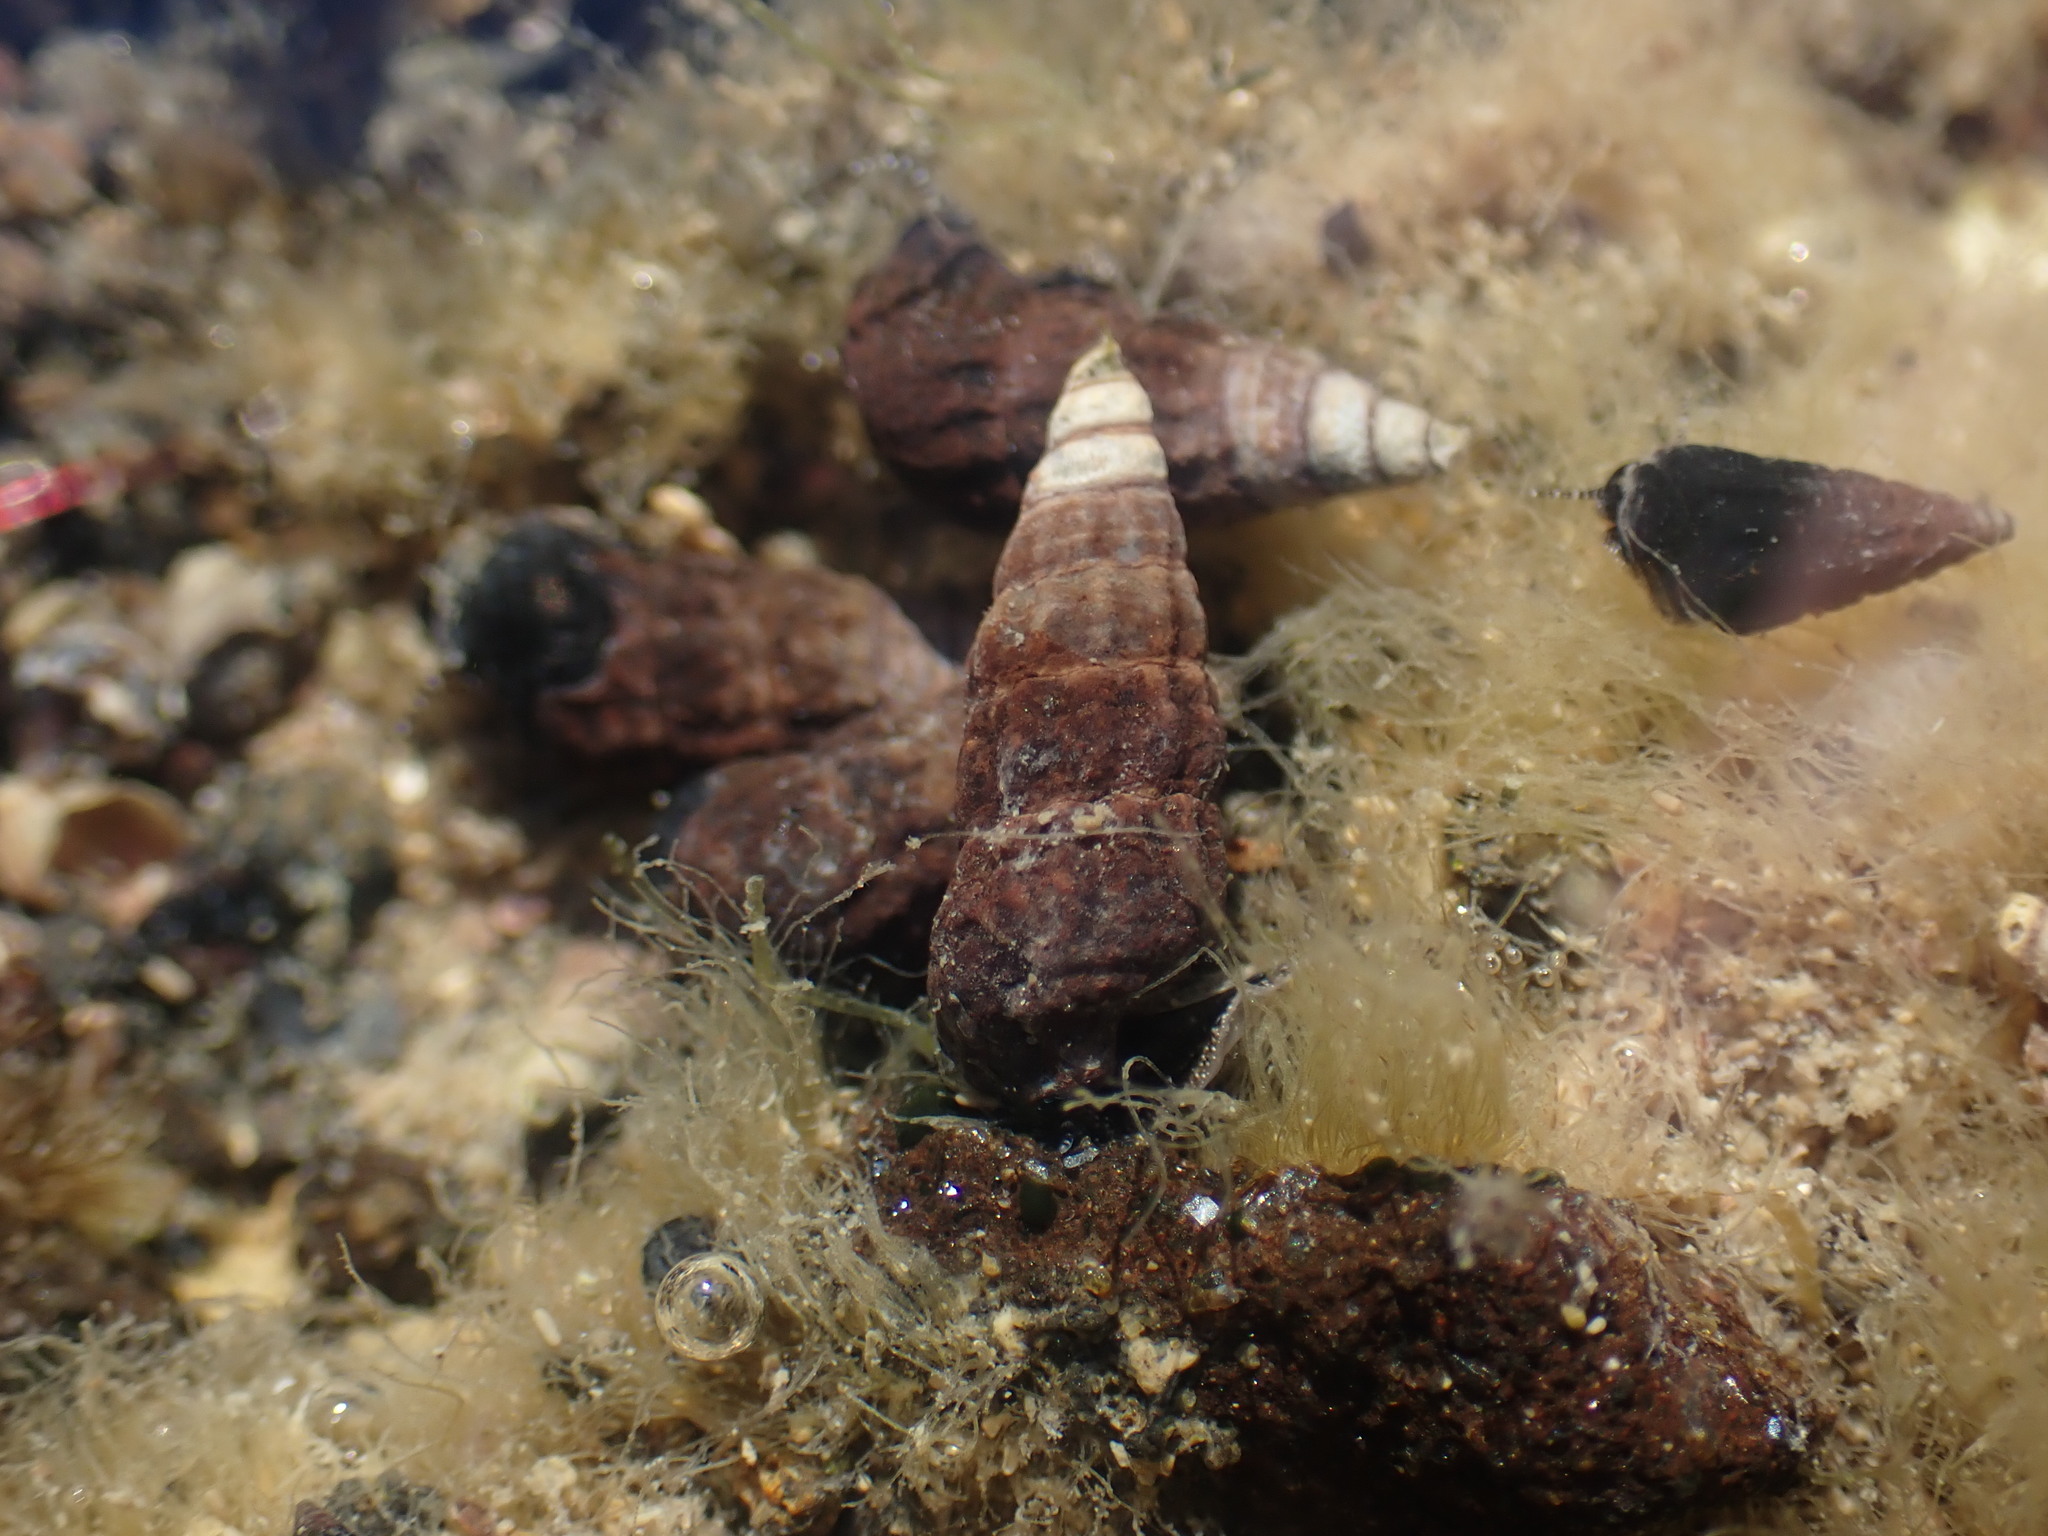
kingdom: Animalia
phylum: Mollusca
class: Gastropoda
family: Batillariidae
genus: Zeacumantus
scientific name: Zeacumantus subcarinatus
